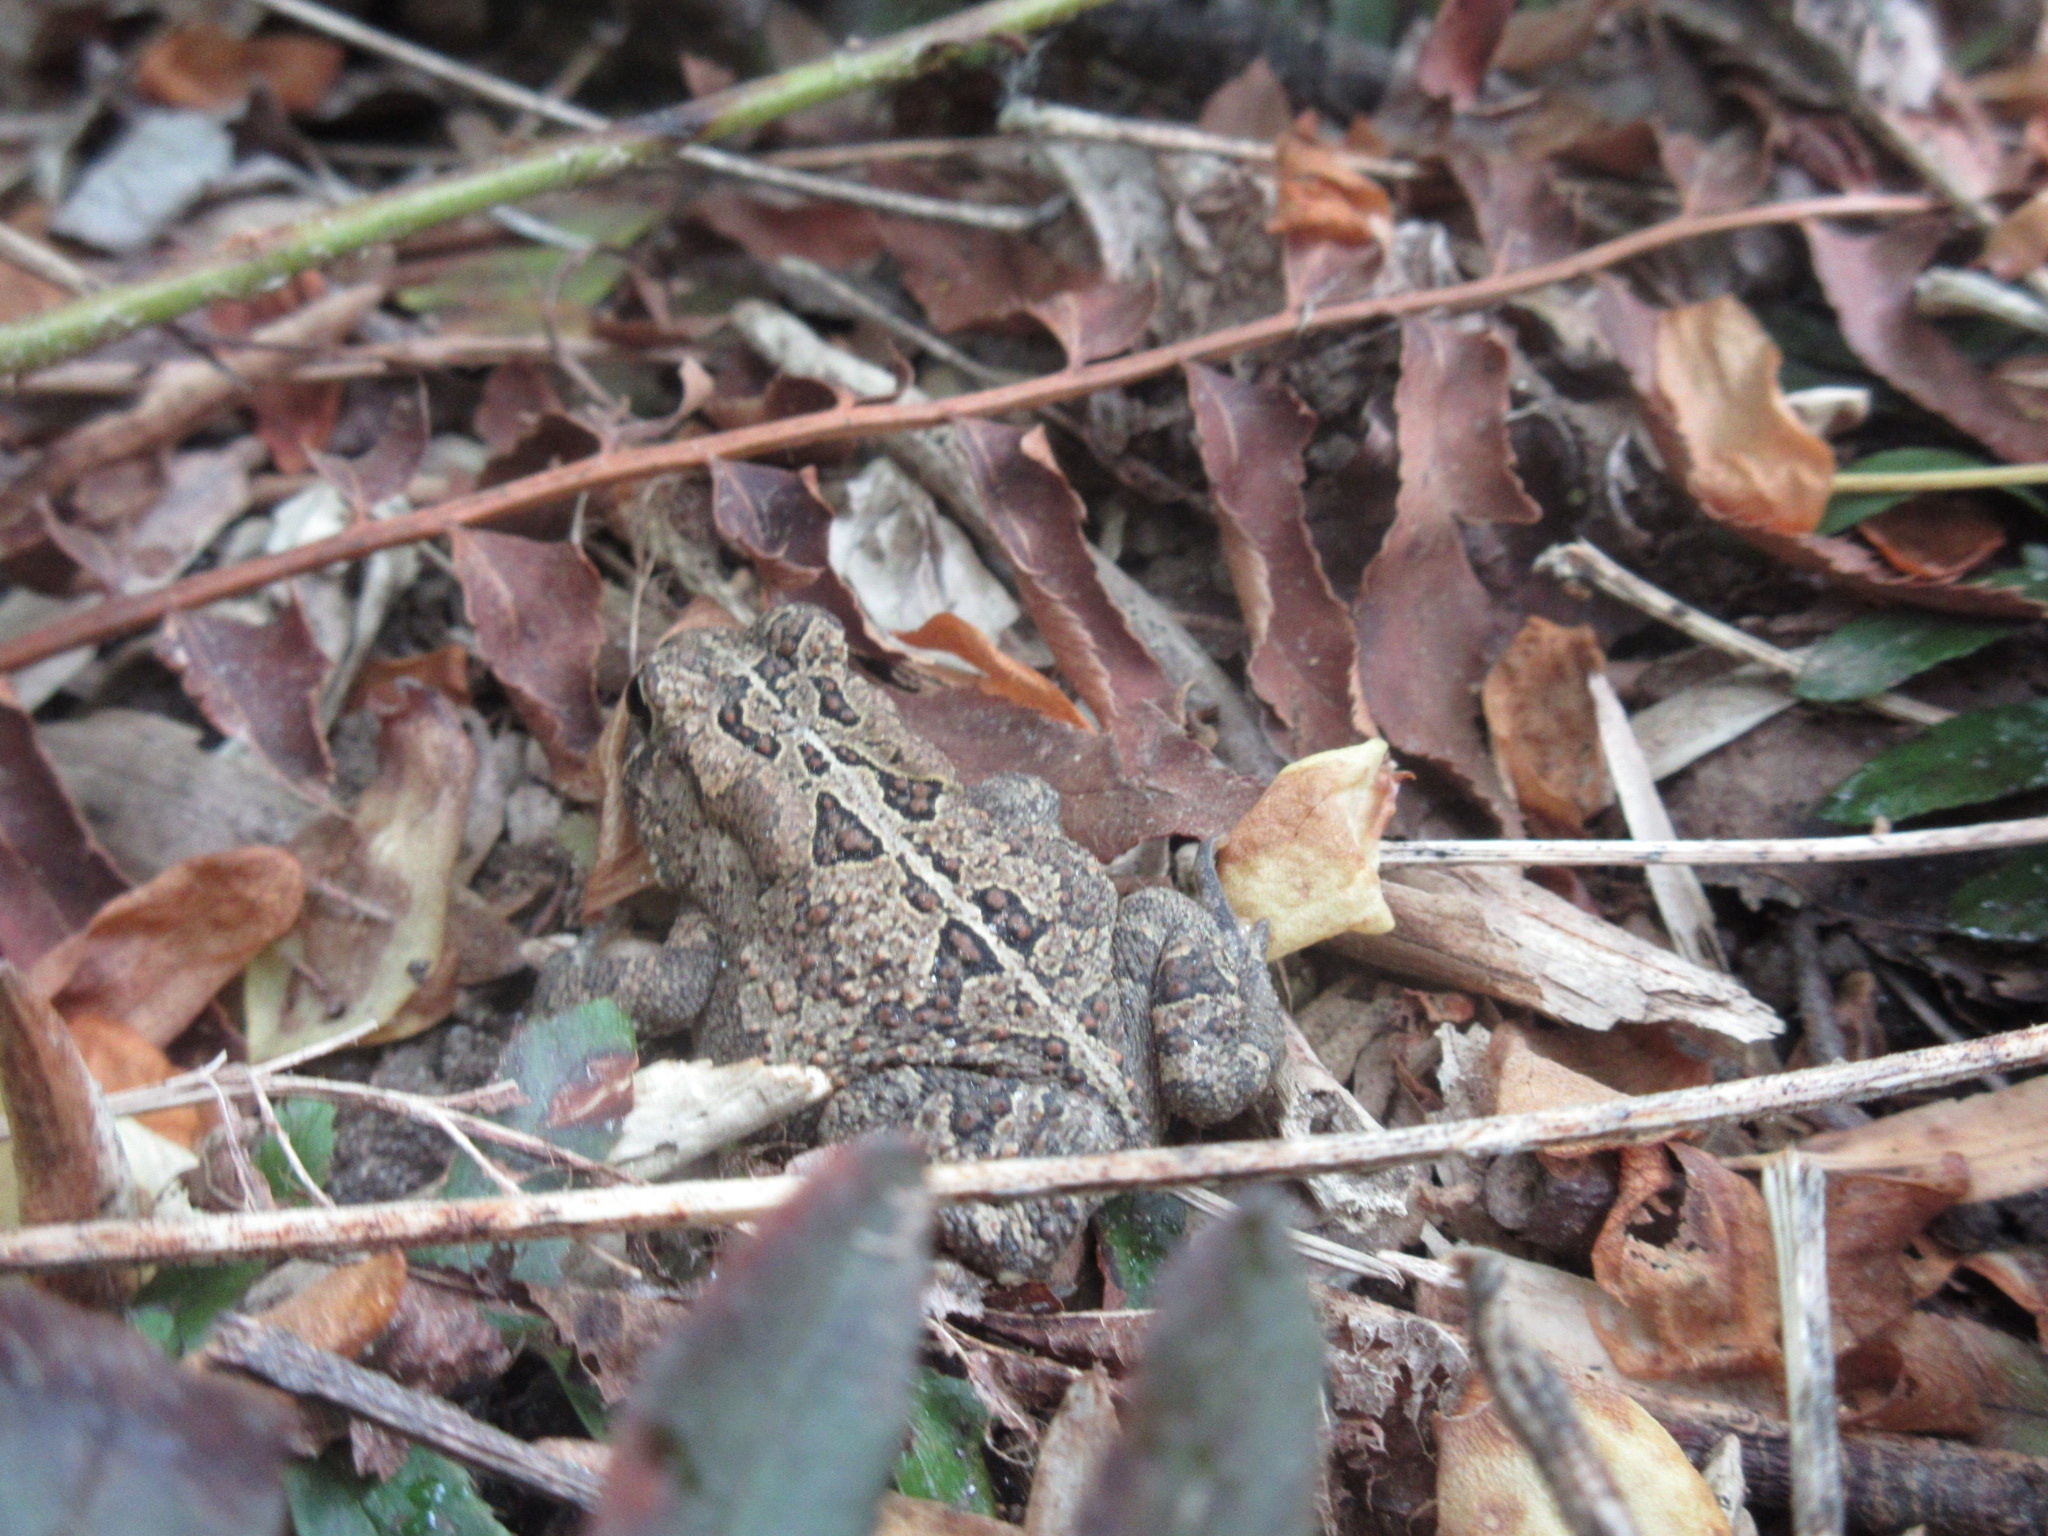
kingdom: Animalia
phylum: Chordata
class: Amphibia
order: Anura
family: Bufonidae
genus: Anaxyrus
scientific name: Anaxyrus fowleri
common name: Fowler's toad
